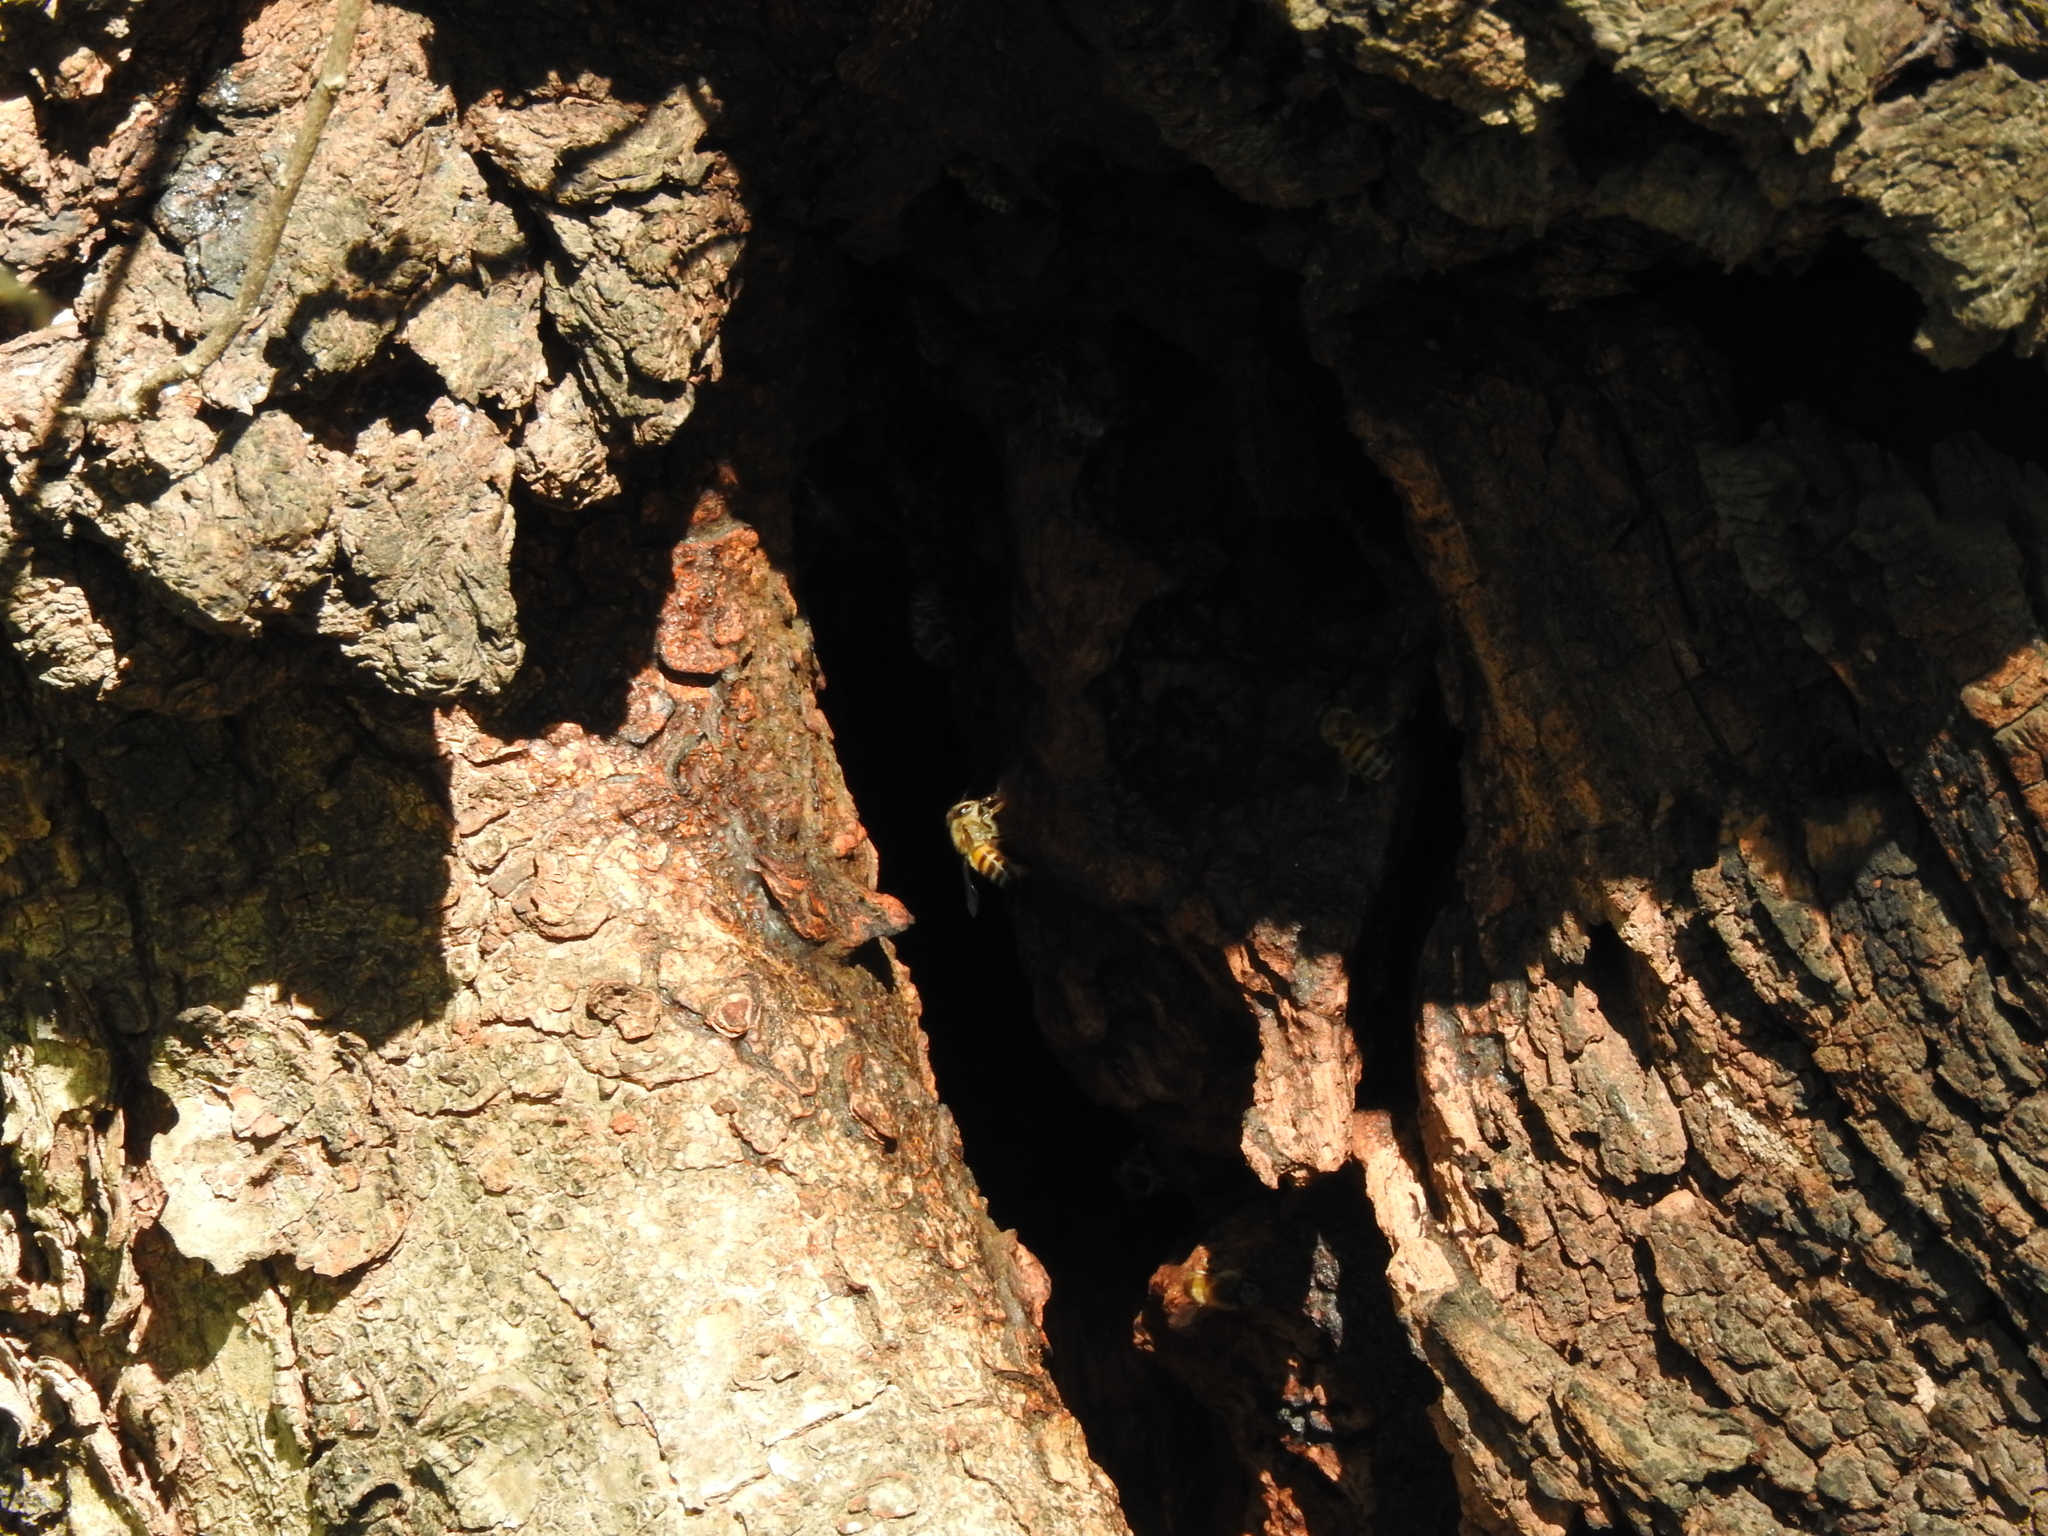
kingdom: Animalia
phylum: Arthropoda
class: Insecta
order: Hymenoptera
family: Apidae
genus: Apis
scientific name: Apis mellifera
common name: Honey bee
